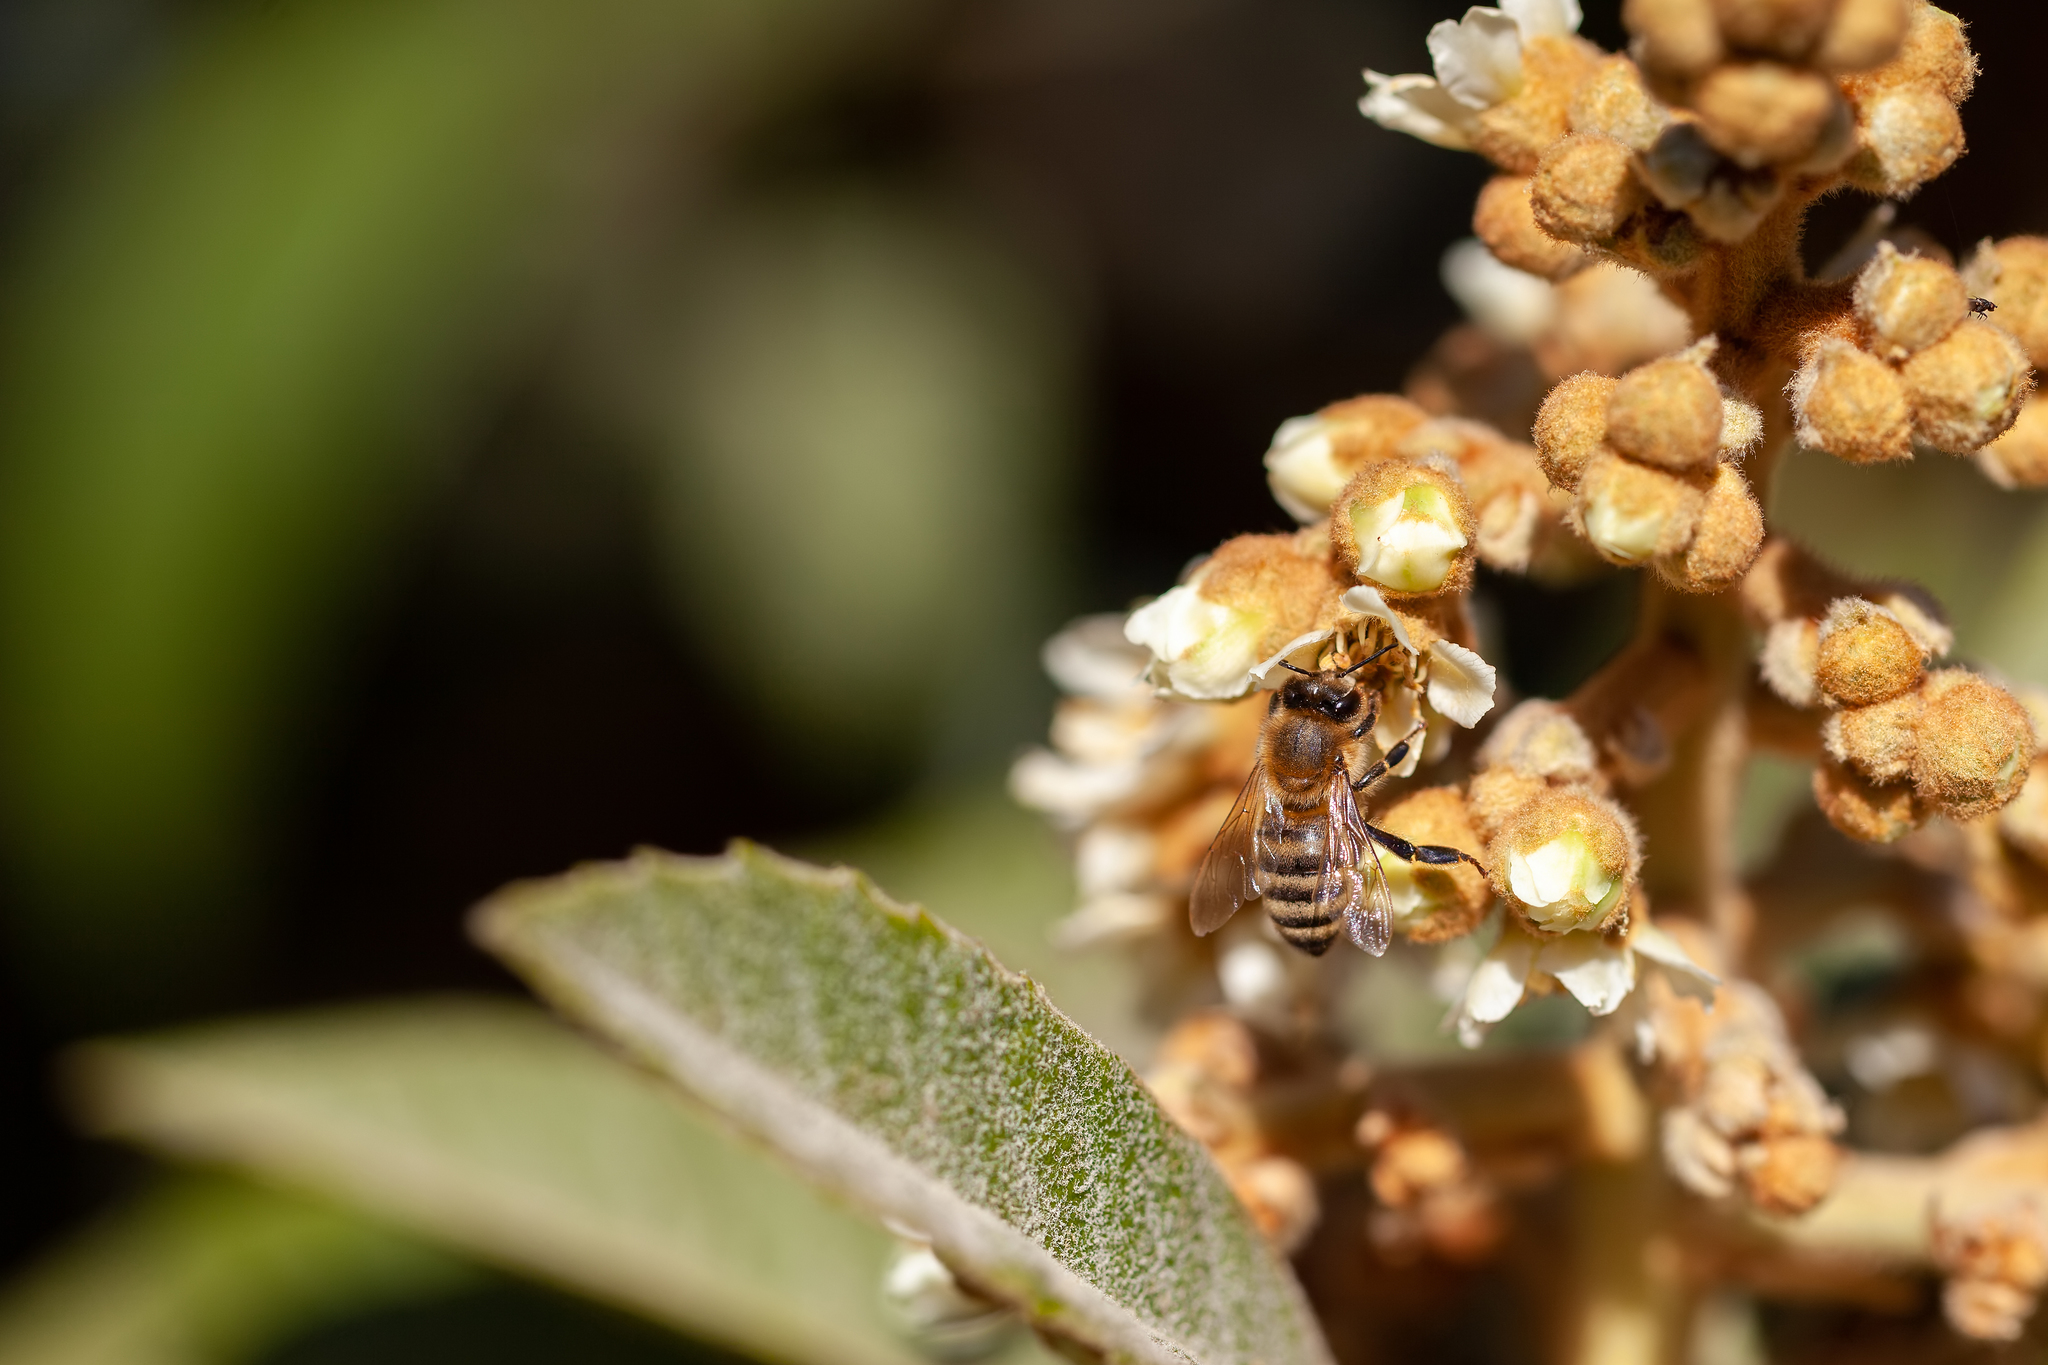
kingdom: Animalia
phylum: Arthropoda
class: Insecta
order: Hymenoptera
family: Apidae
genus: Apis
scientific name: Apis mellifera
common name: Honey bee
